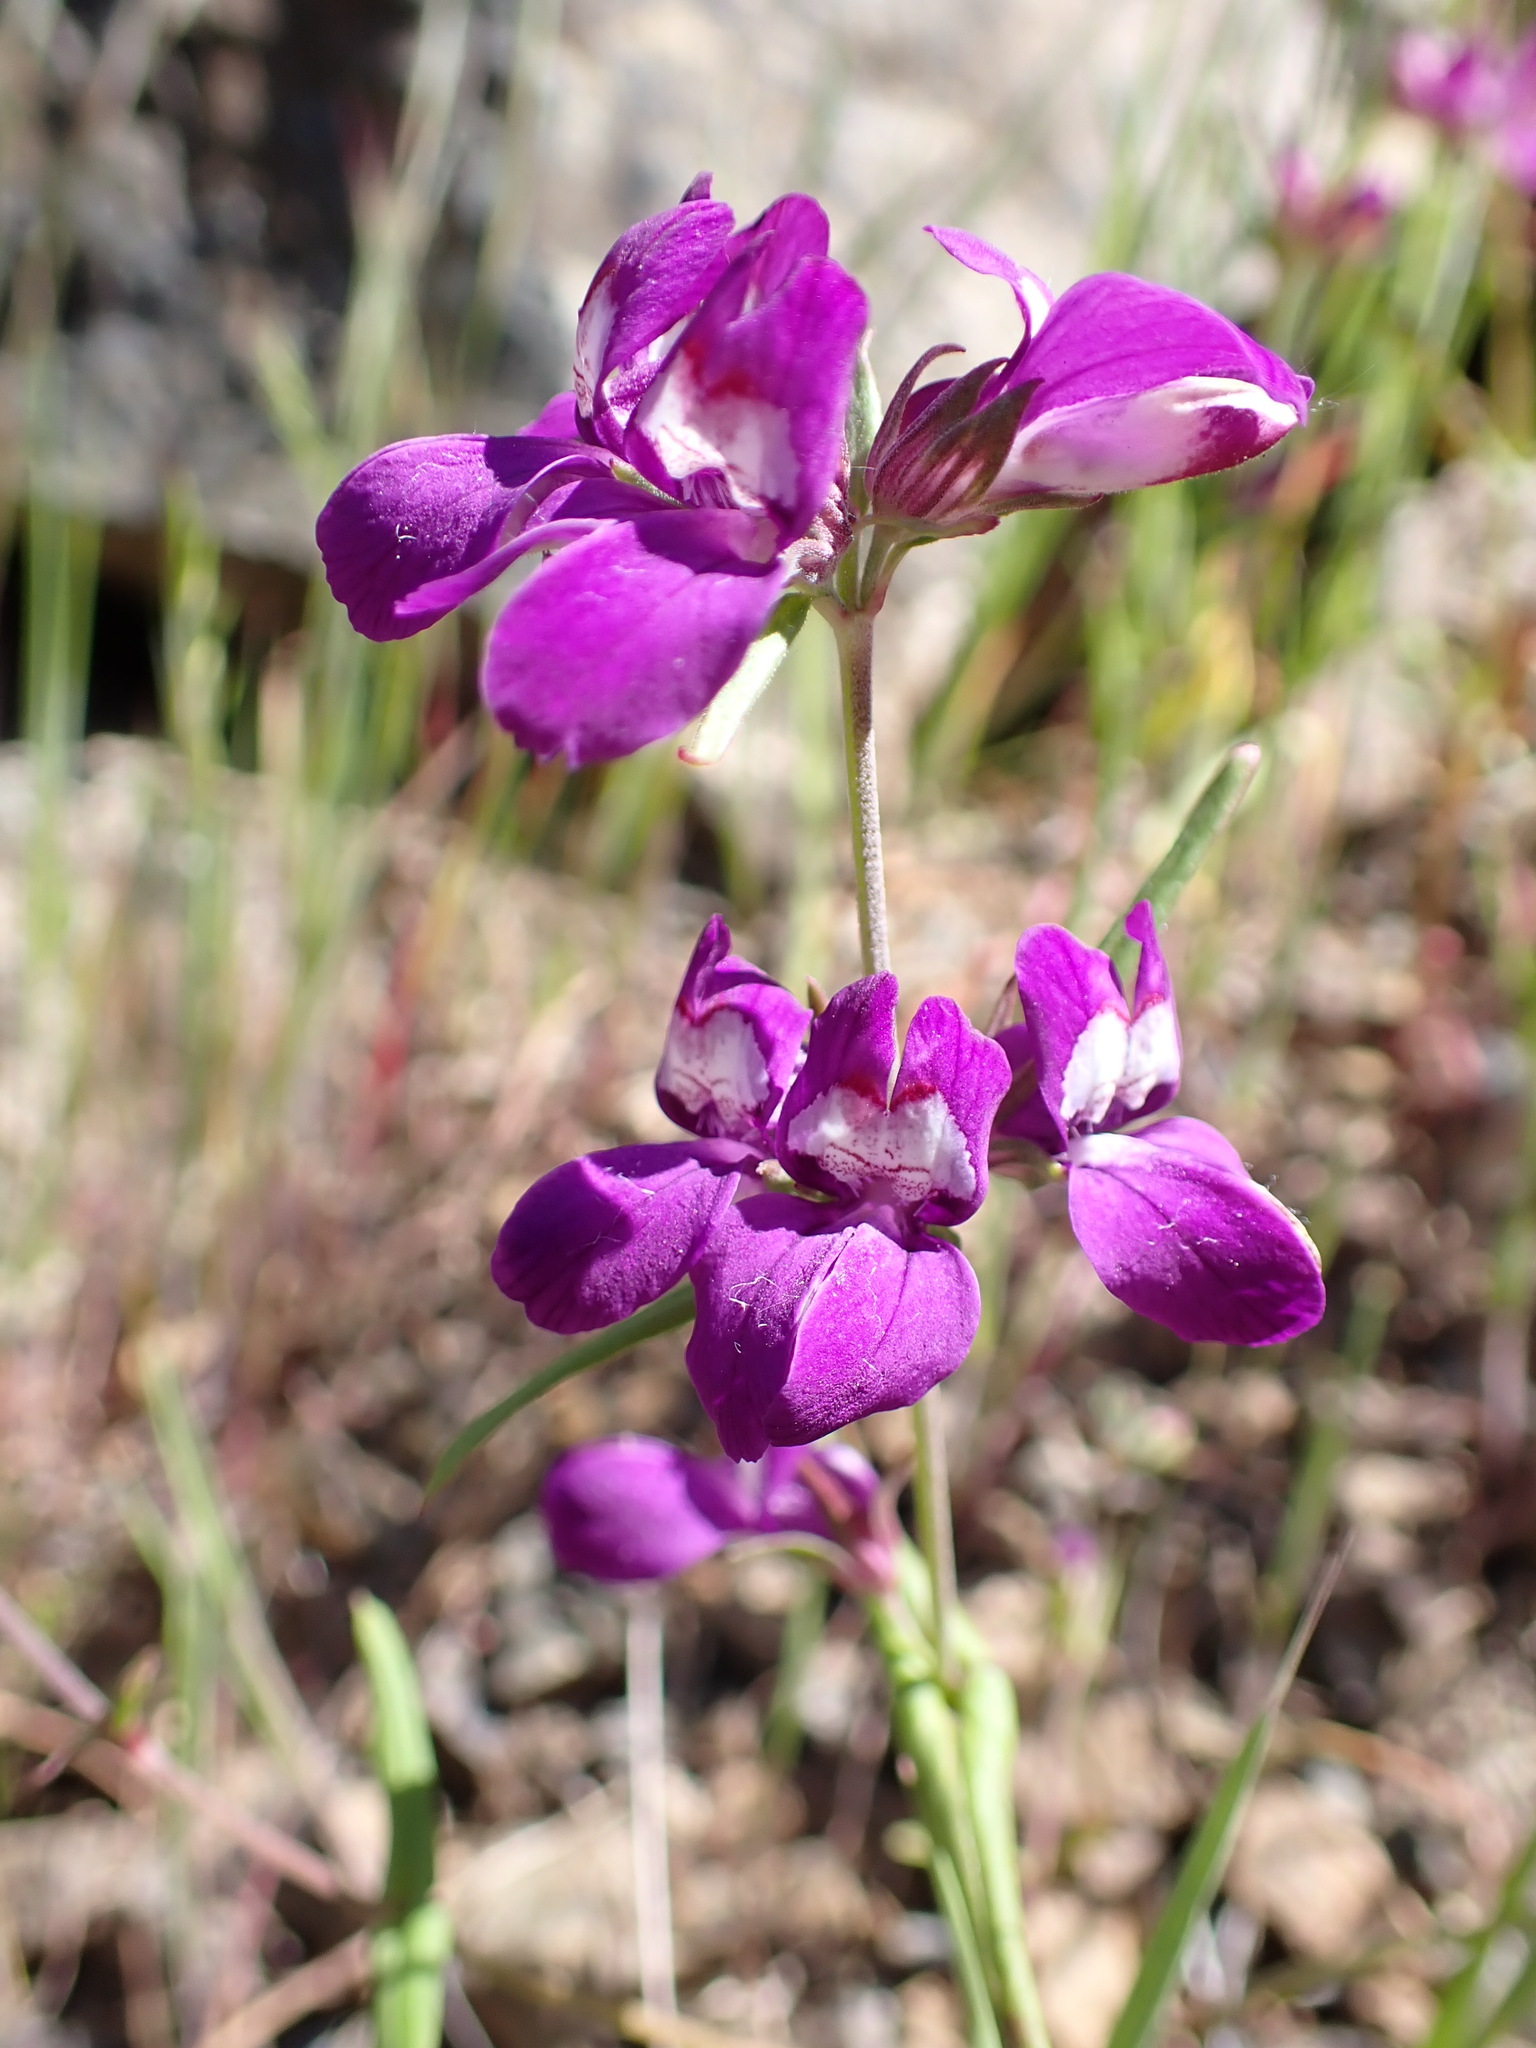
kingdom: Plantae
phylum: Tracheophyta
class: Magnoliopsida
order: Lamiales
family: Plantaginaceae
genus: Collinsia
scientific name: Collinsia heterophylla
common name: Chinese-houses
